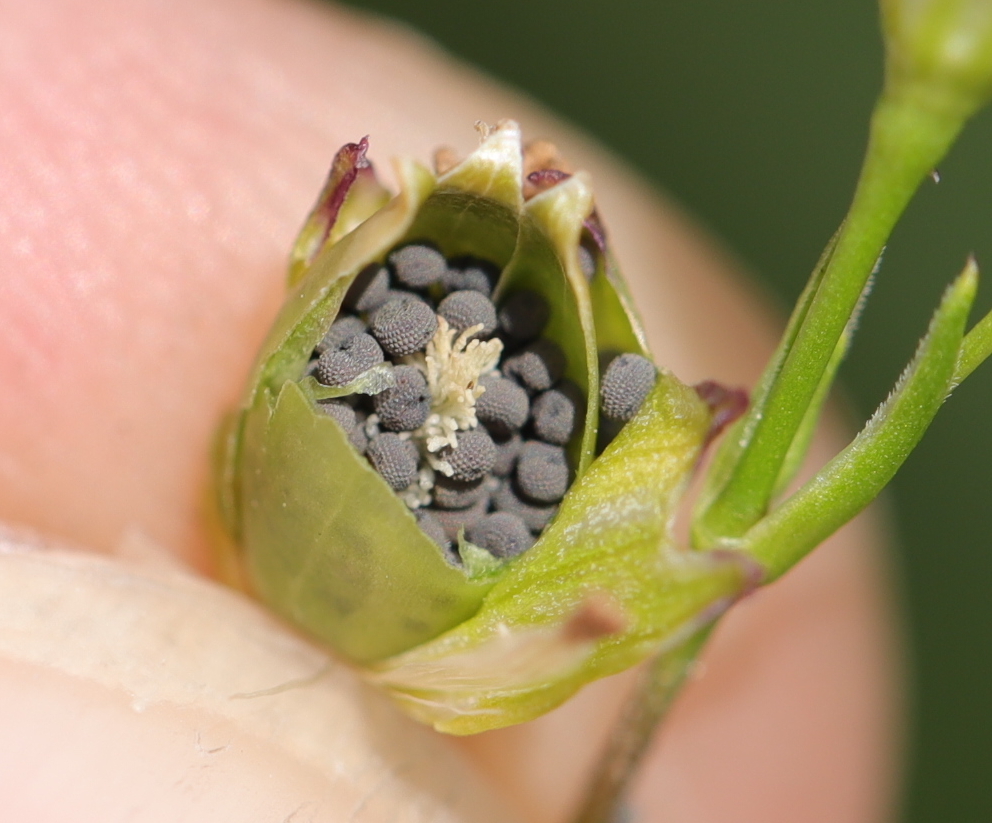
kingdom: Plantae
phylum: Tracheophyta
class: Magnoliopsida
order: Caryophyllales
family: Caryophyllaceae
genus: Silene
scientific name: Silene antirrhina
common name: Sleepy catchfly
